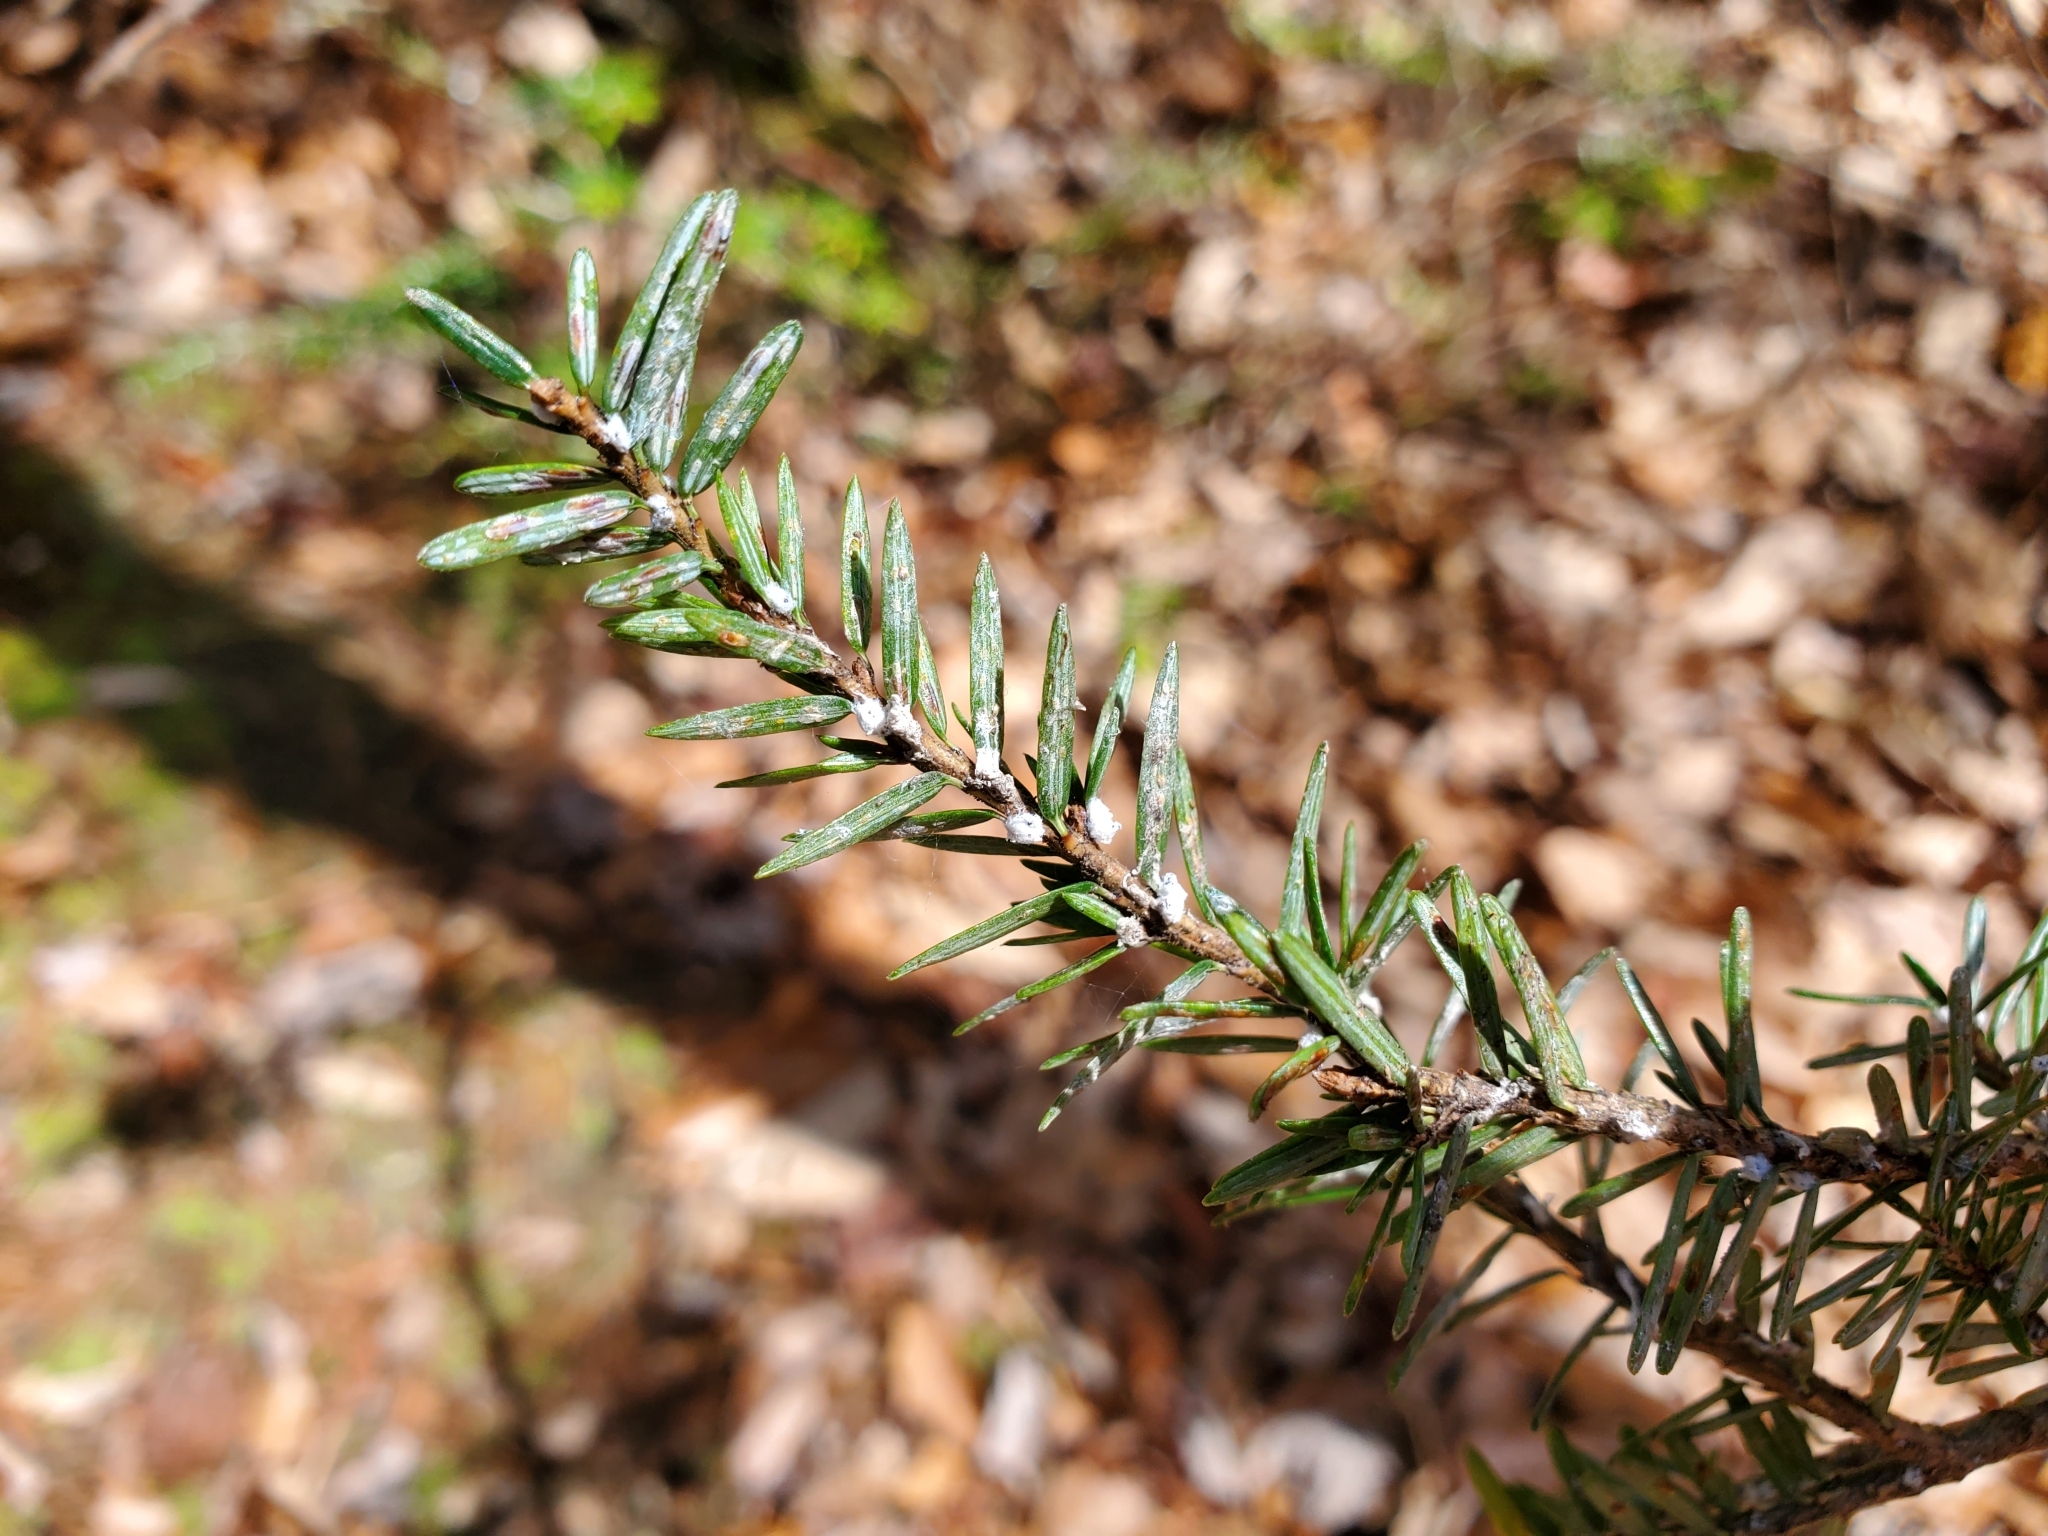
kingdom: Animalia
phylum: Arthropoda
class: Insecta
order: Hemiptera
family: Adelgidae
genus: Adelges
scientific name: Adelges tsugae
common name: Hemlock woolly adelgid
